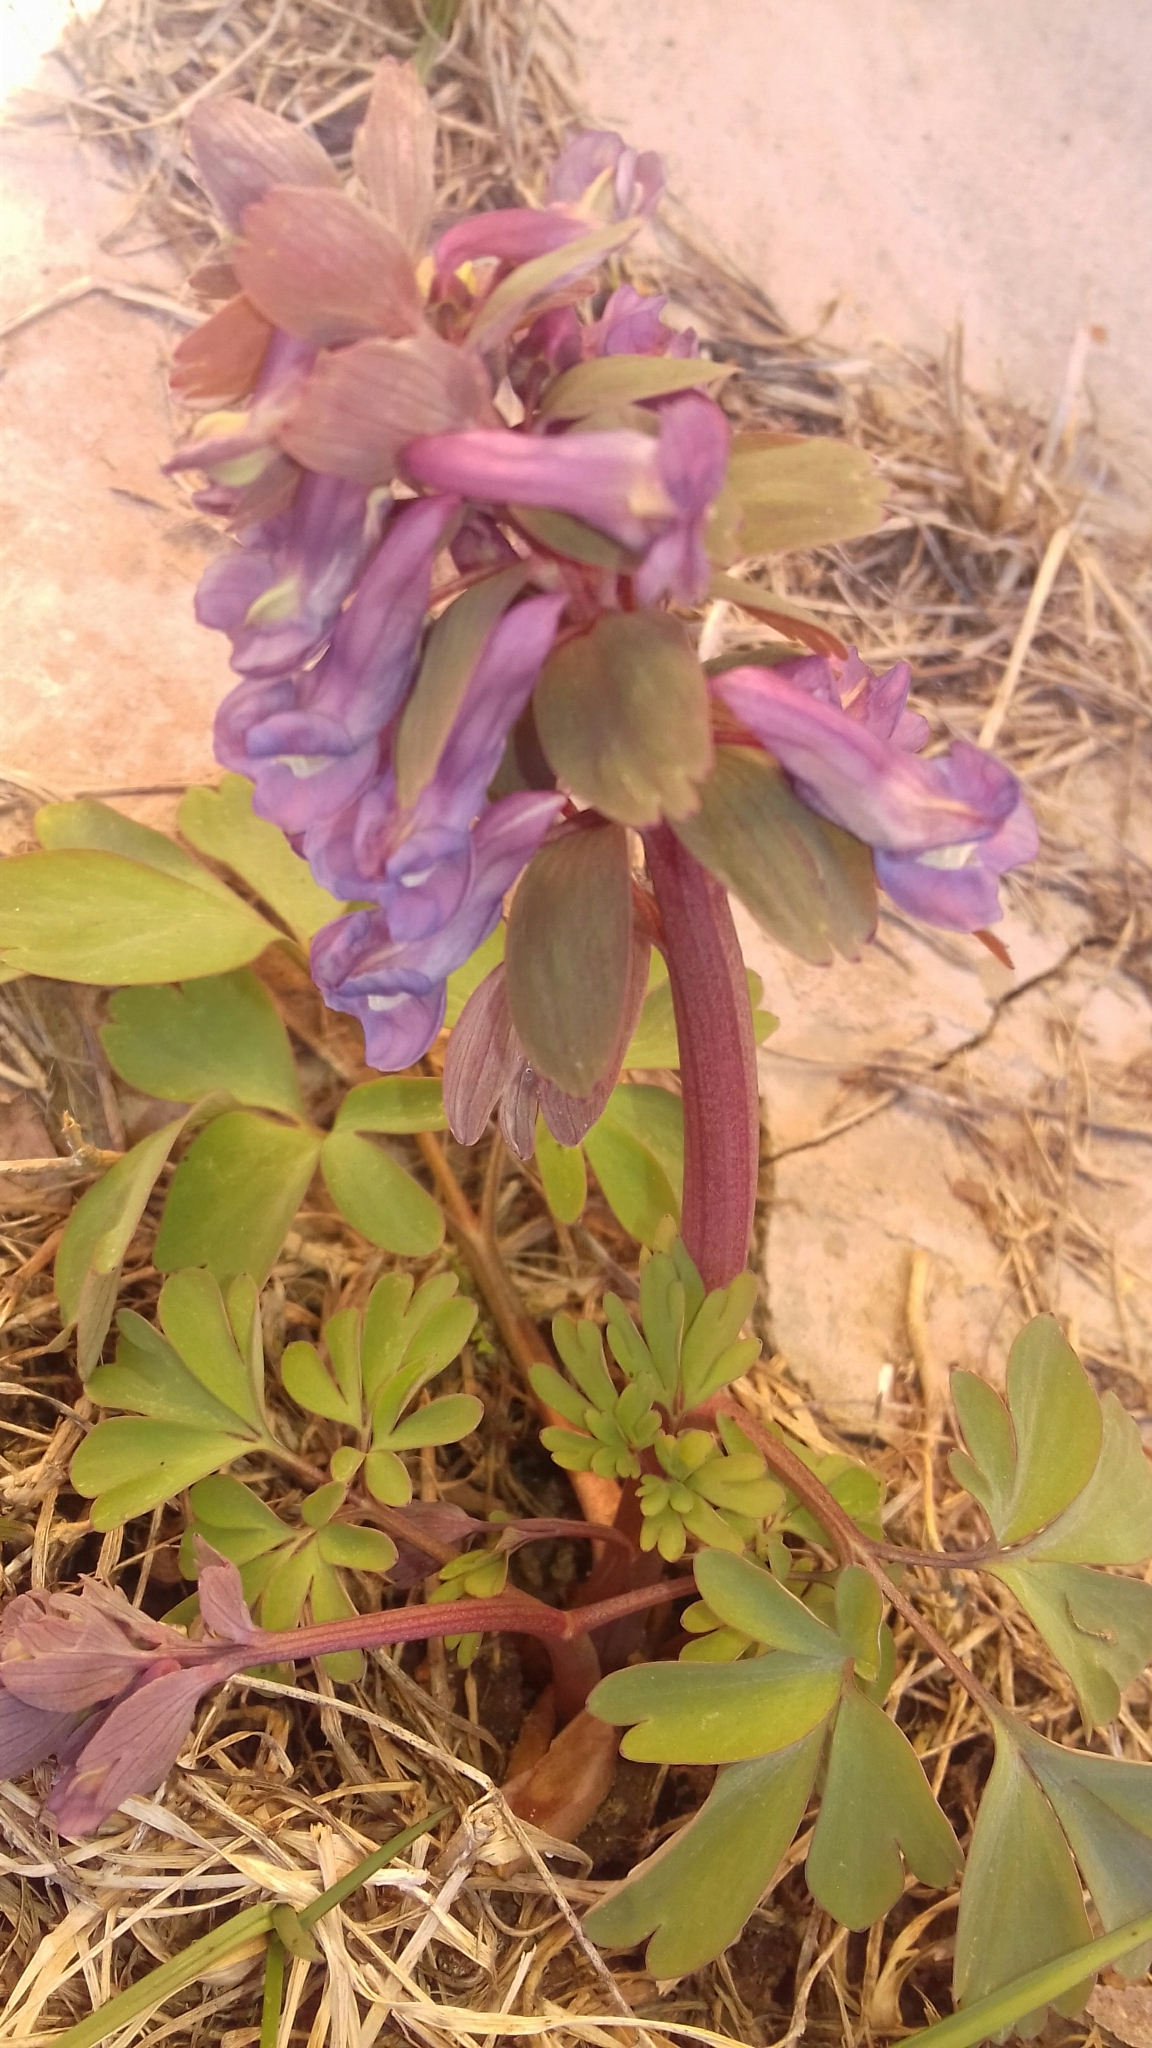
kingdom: Plantae
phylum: Tracheophyta
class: Magnoliopsida
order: Ranunculales
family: Papaveraceae
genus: Corydalis
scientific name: Corydalis solida
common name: Bird-in-a-bush
